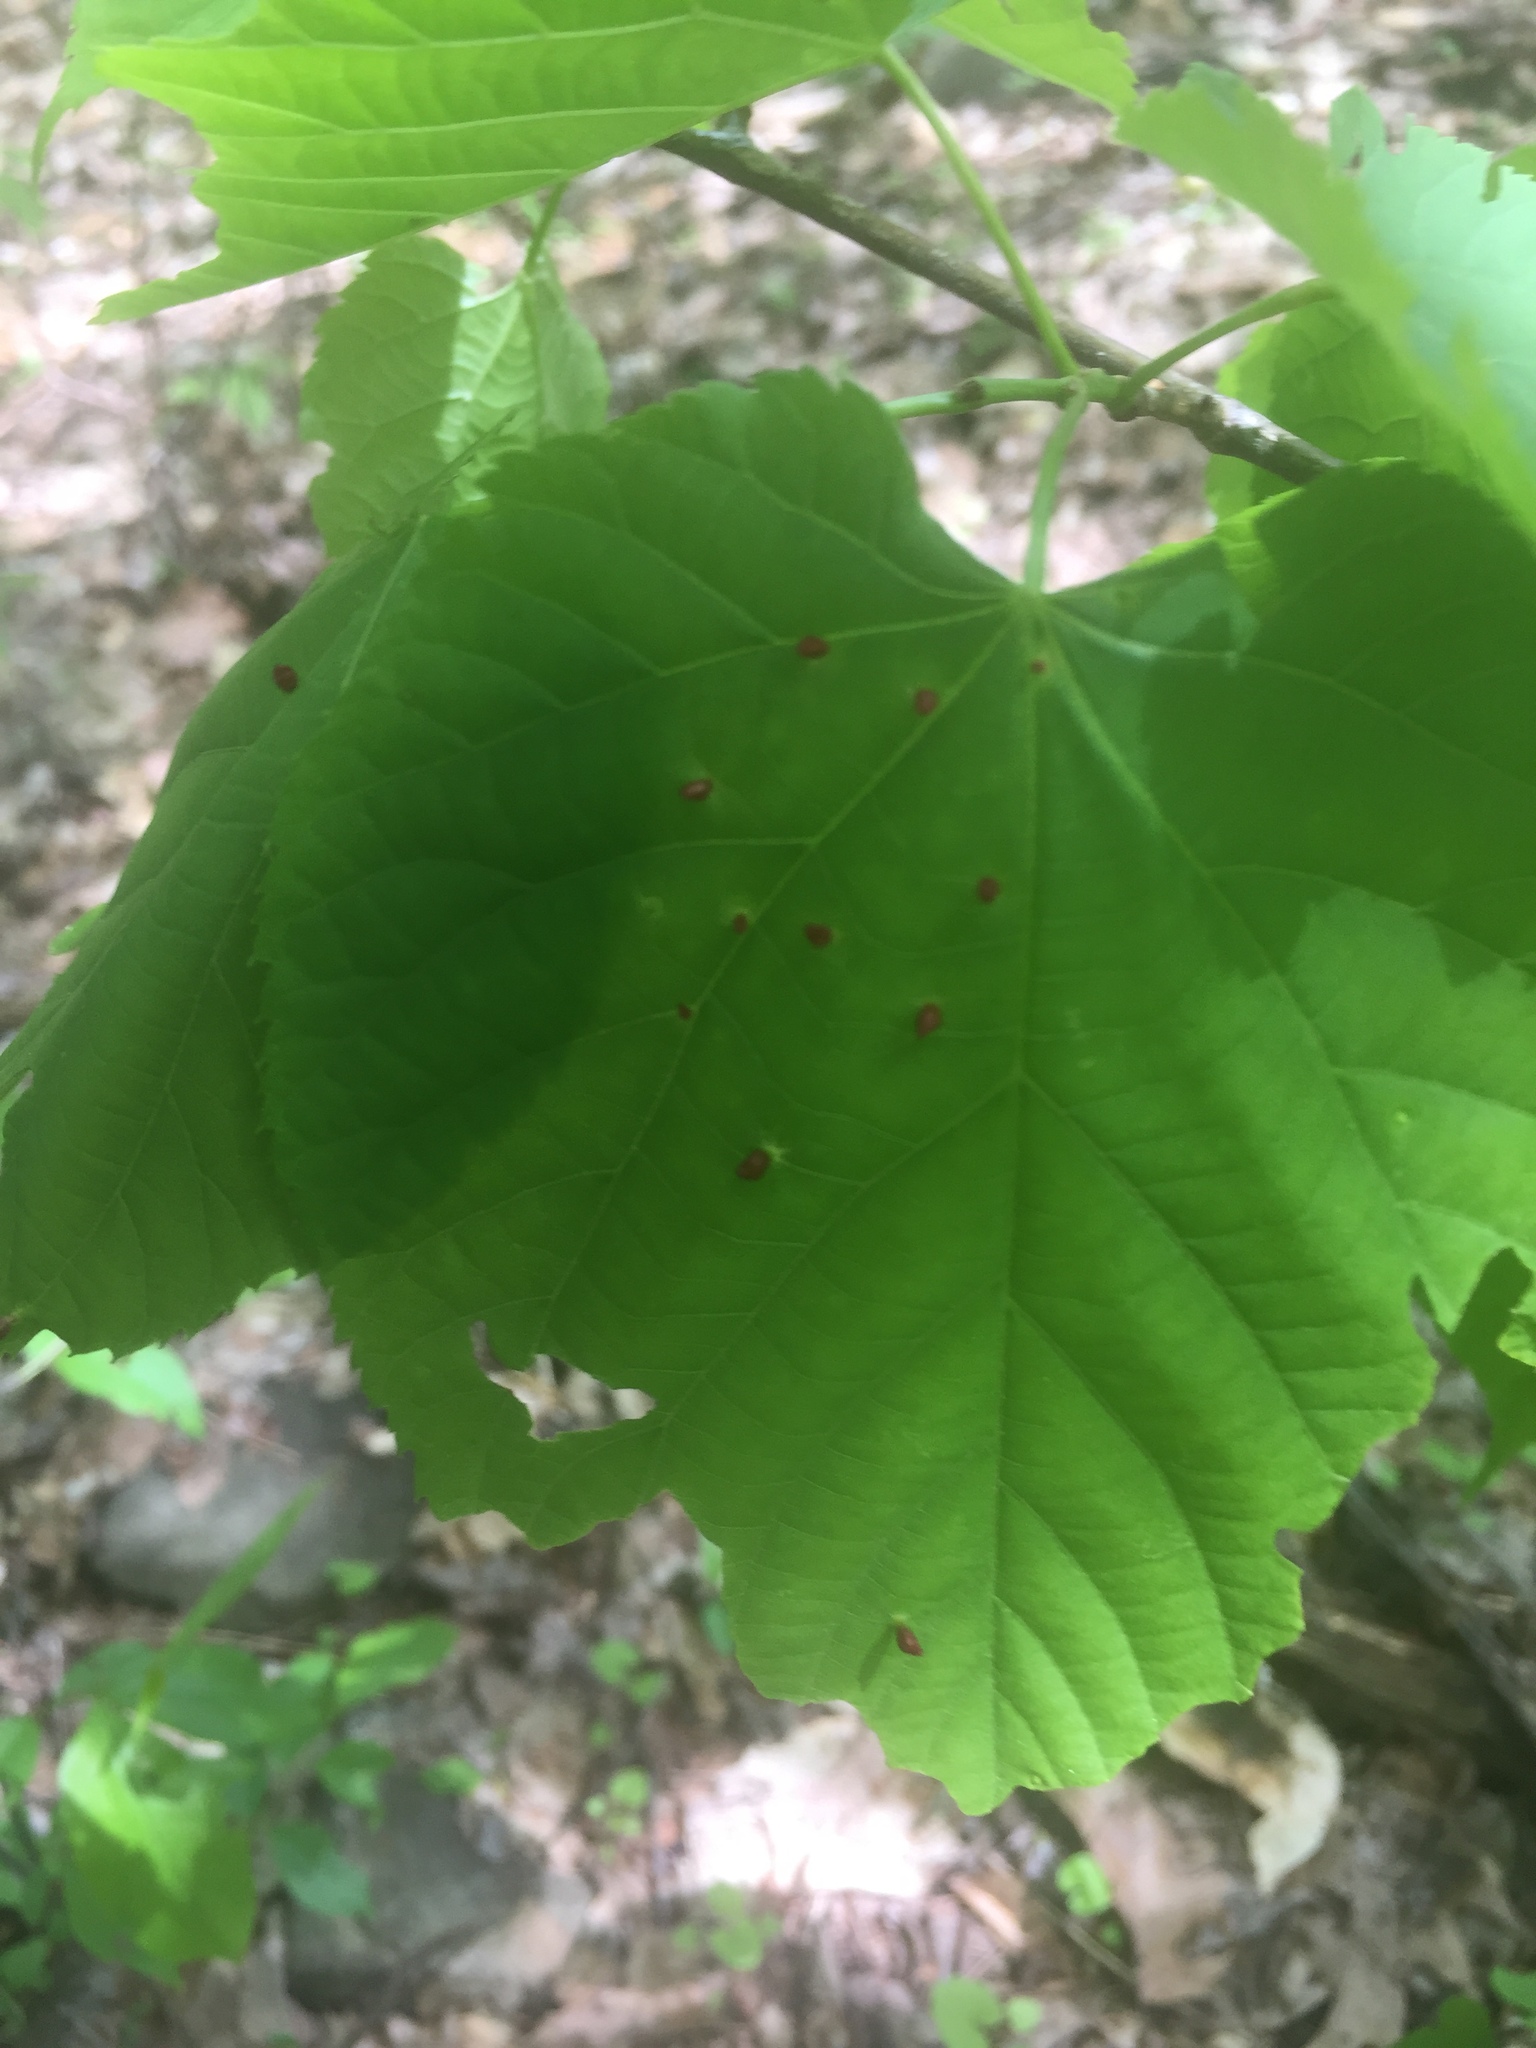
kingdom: Animalia
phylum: Arthropoda
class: Arachnida
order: Trombidiformes
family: Eriophyidae
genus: Eriophyes
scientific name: Eriophyes tiliae
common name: Red nail gall mite
